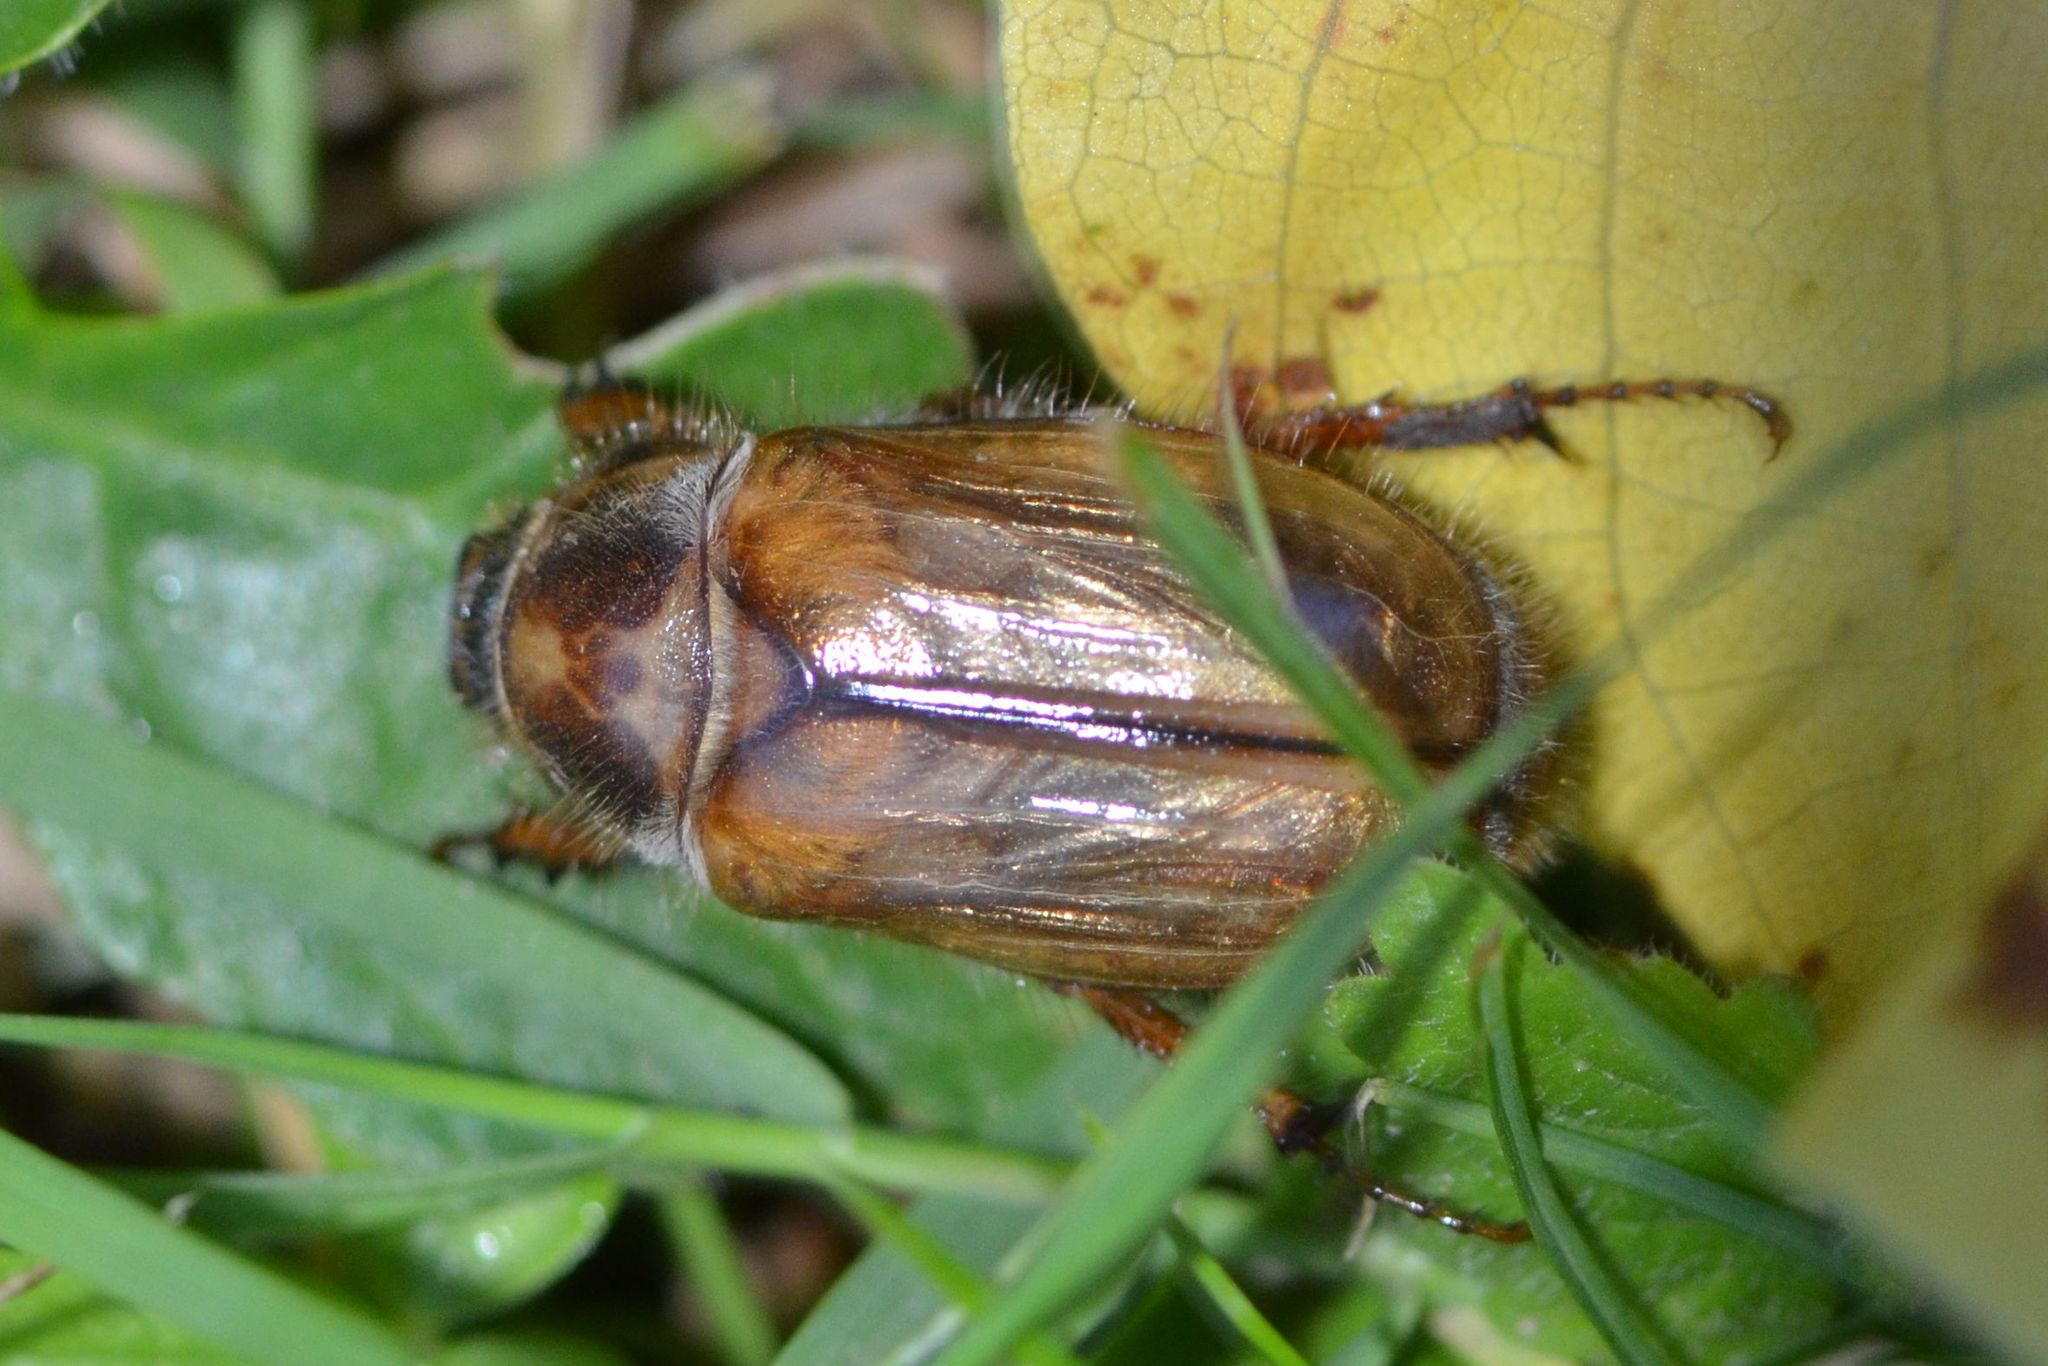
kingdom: Animalia
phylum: Arthropoda
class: Insecta
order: Coleoptera
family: Scarabaeidae
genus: Amphimallon
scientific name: Amphimallon solstitiale
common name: Summer chafer
